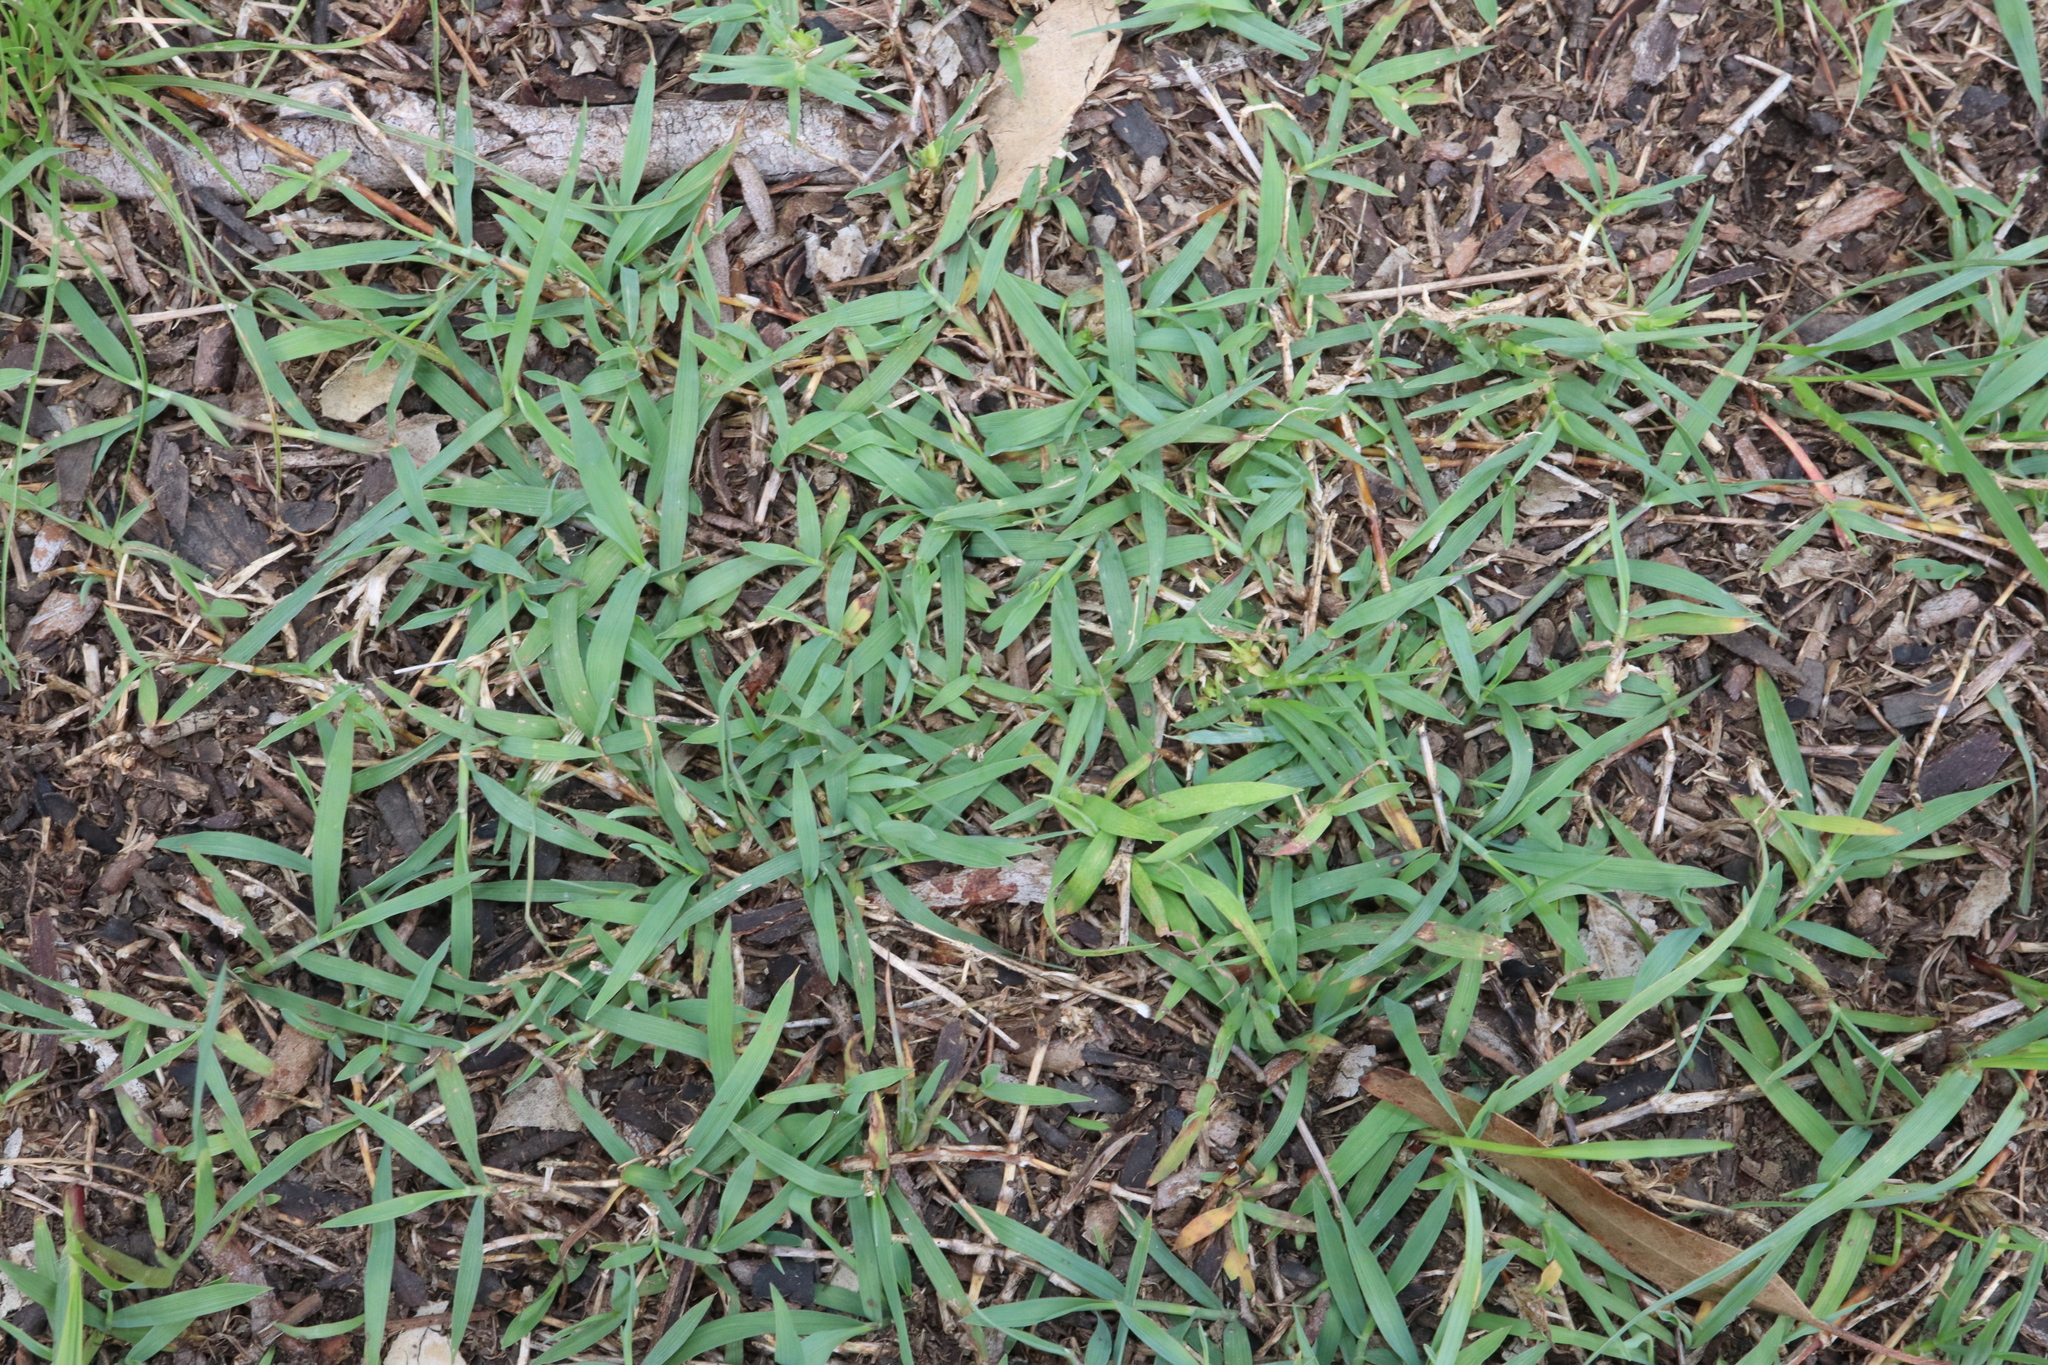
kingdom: Plantae
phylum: Tracheophyta
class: Liliopsida
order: Poales
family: Poaceae
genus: Digitaria
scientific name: Digitaria didactyla
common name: Blue couch
